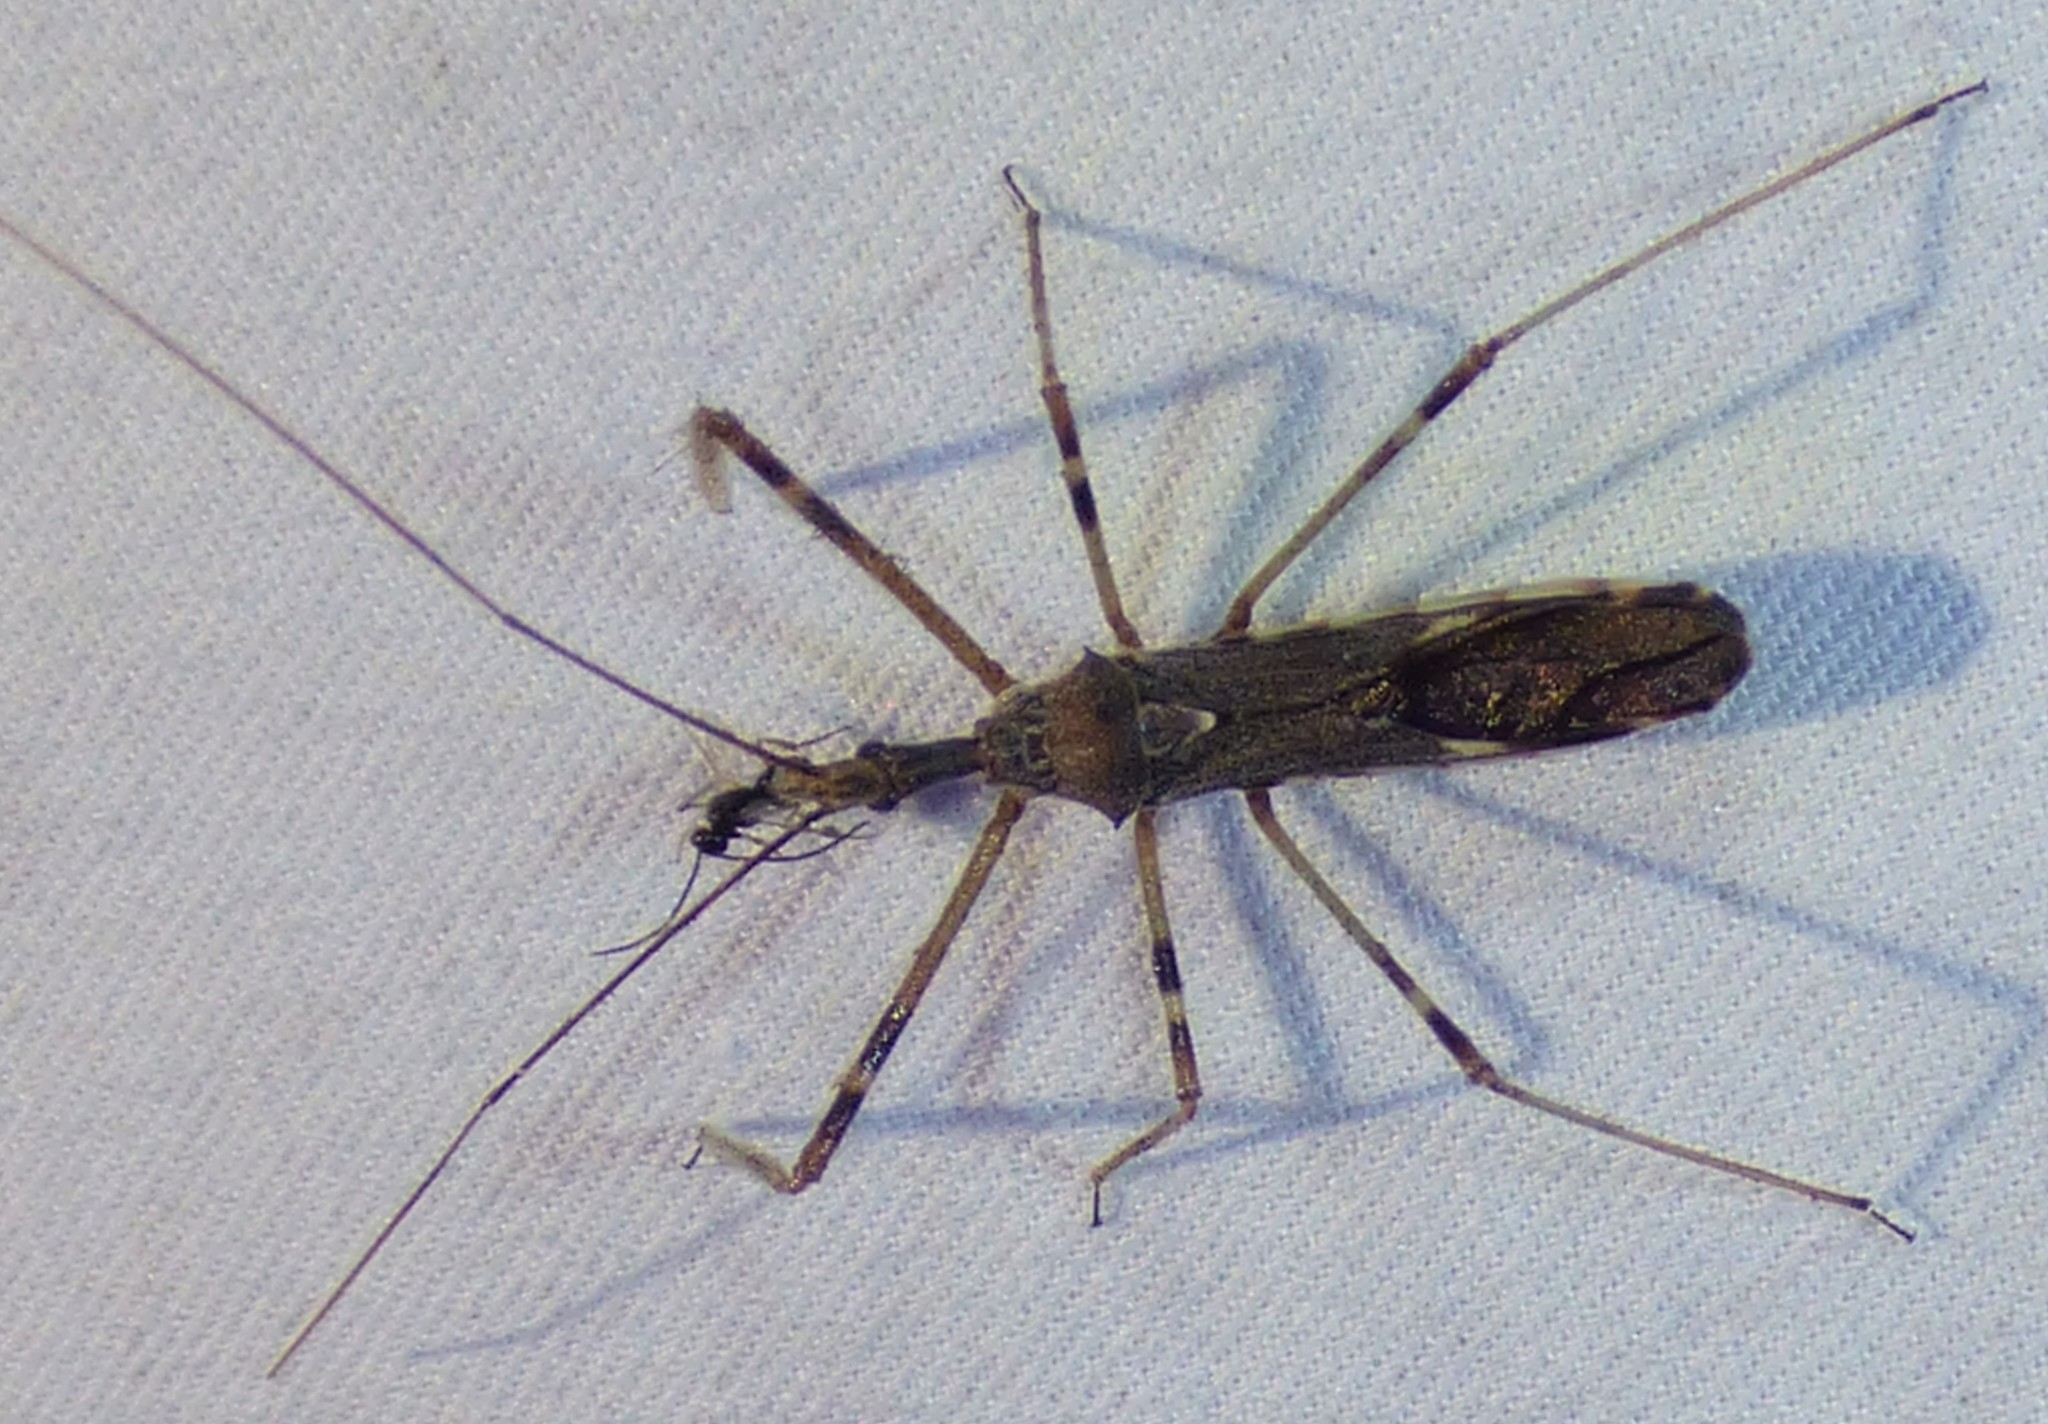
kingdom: Animalia
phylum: Arthropoda
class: Insecta
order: Hemiptera
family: Reduviidae
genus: Zelus
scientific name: Zelus tetracanthus
